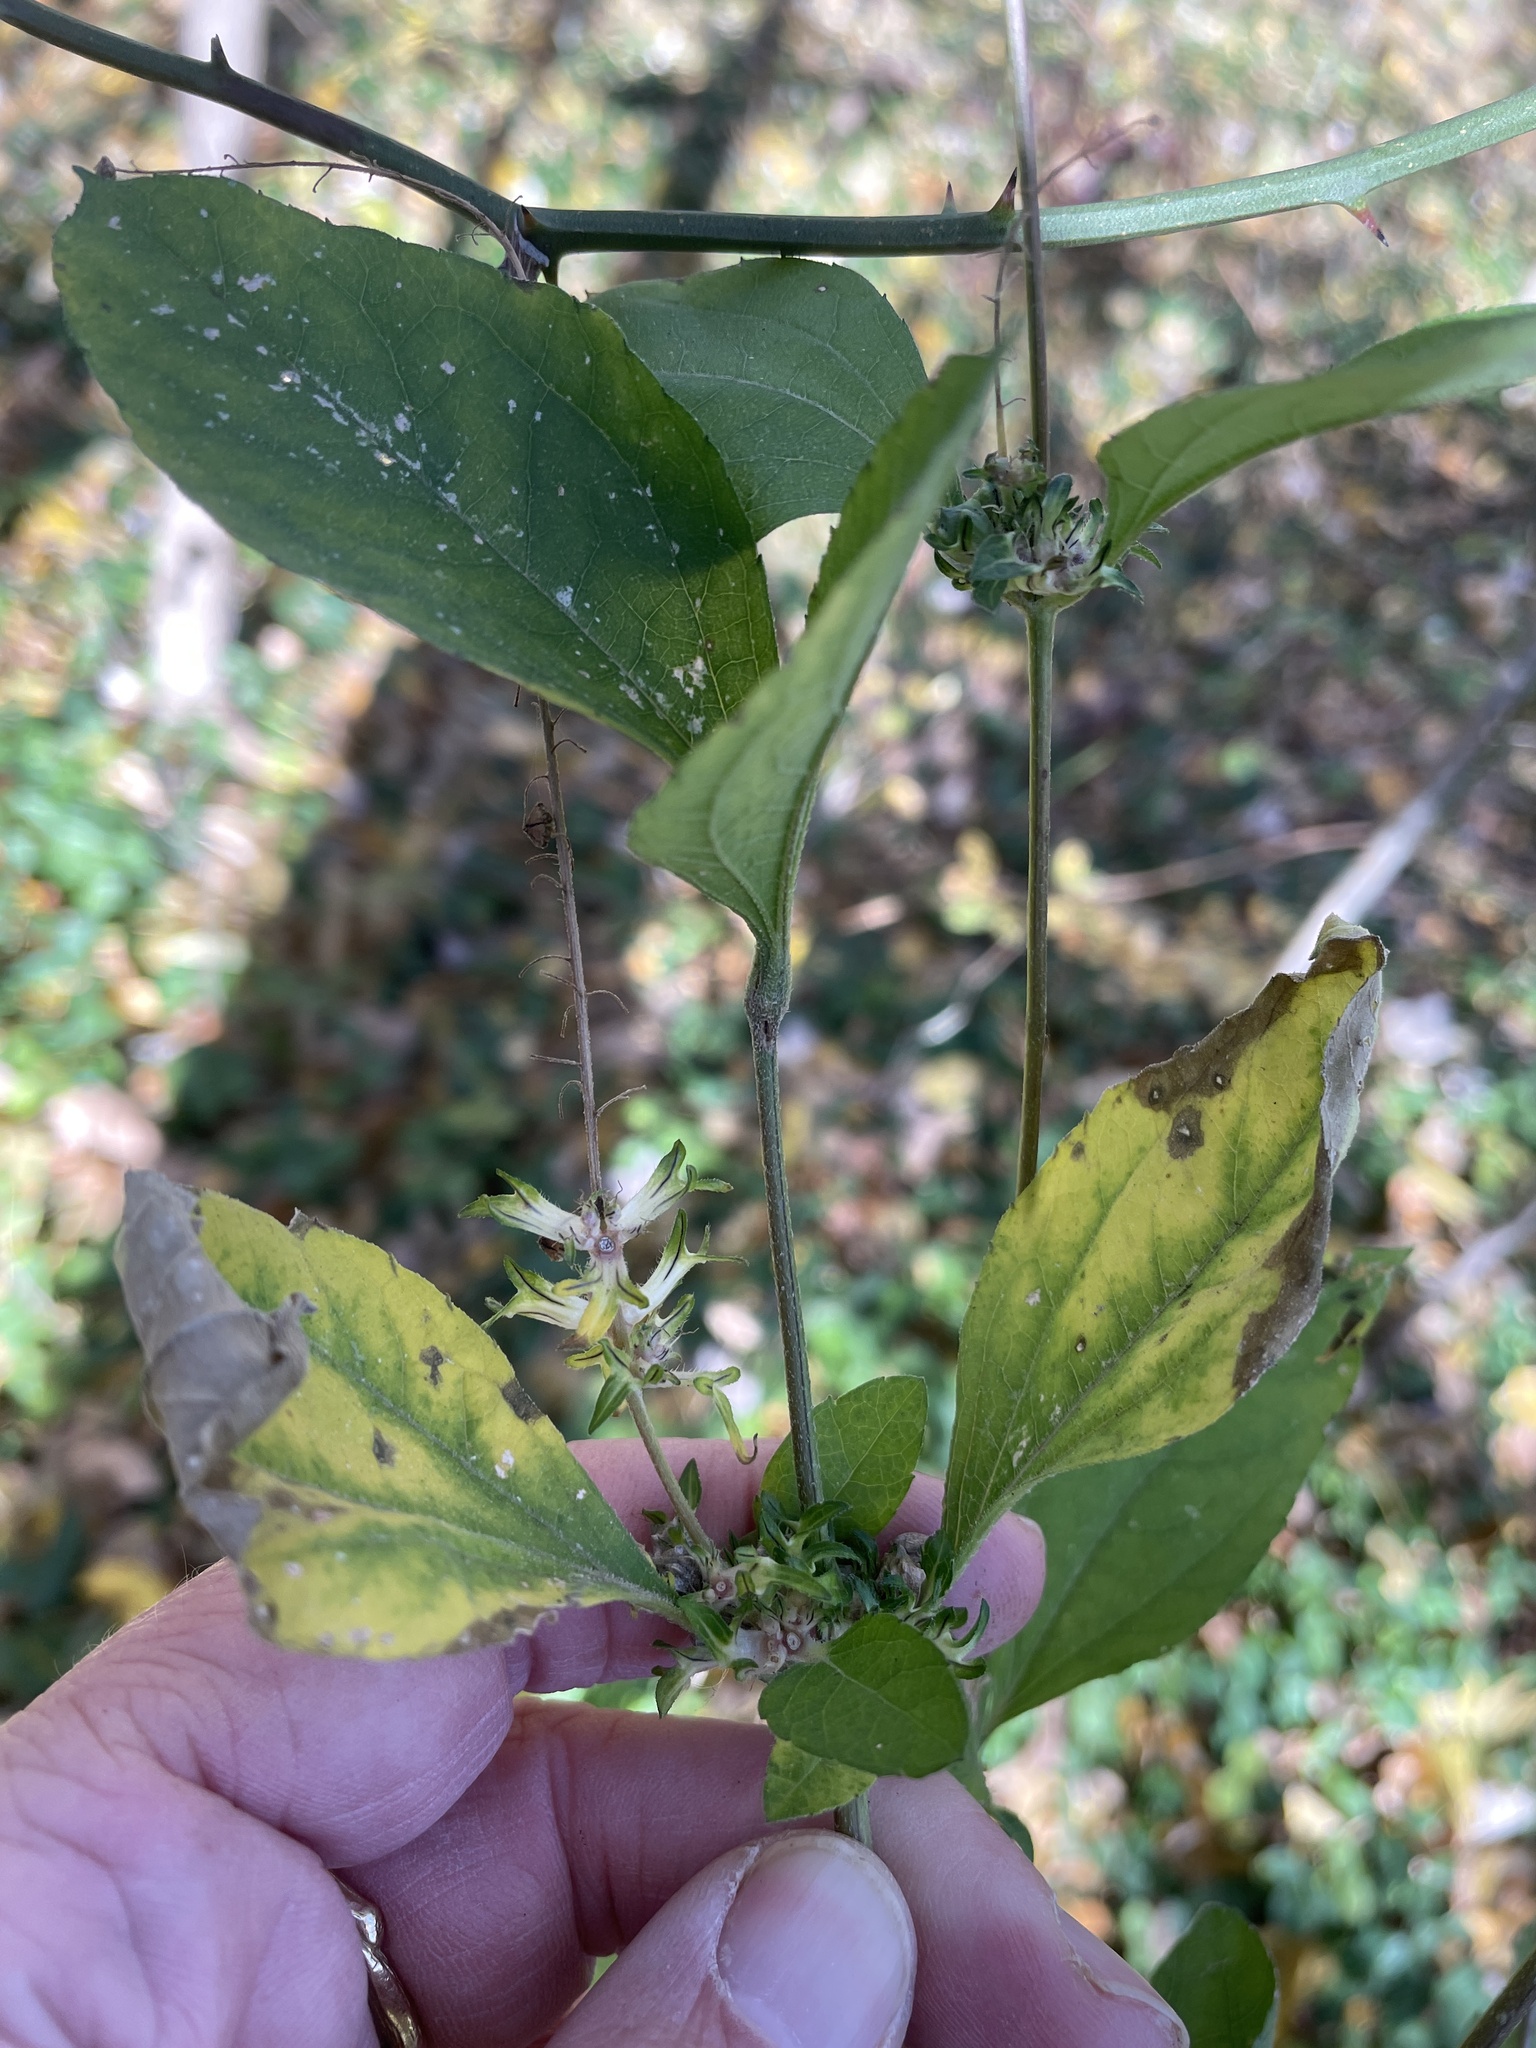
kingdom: Plantae
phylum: Tracheophyta
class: Magnoliopsida
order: Asterales
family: Asteraceae
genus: Ambrosia
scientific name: Ambrosia trifida
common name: Giant ragweed
